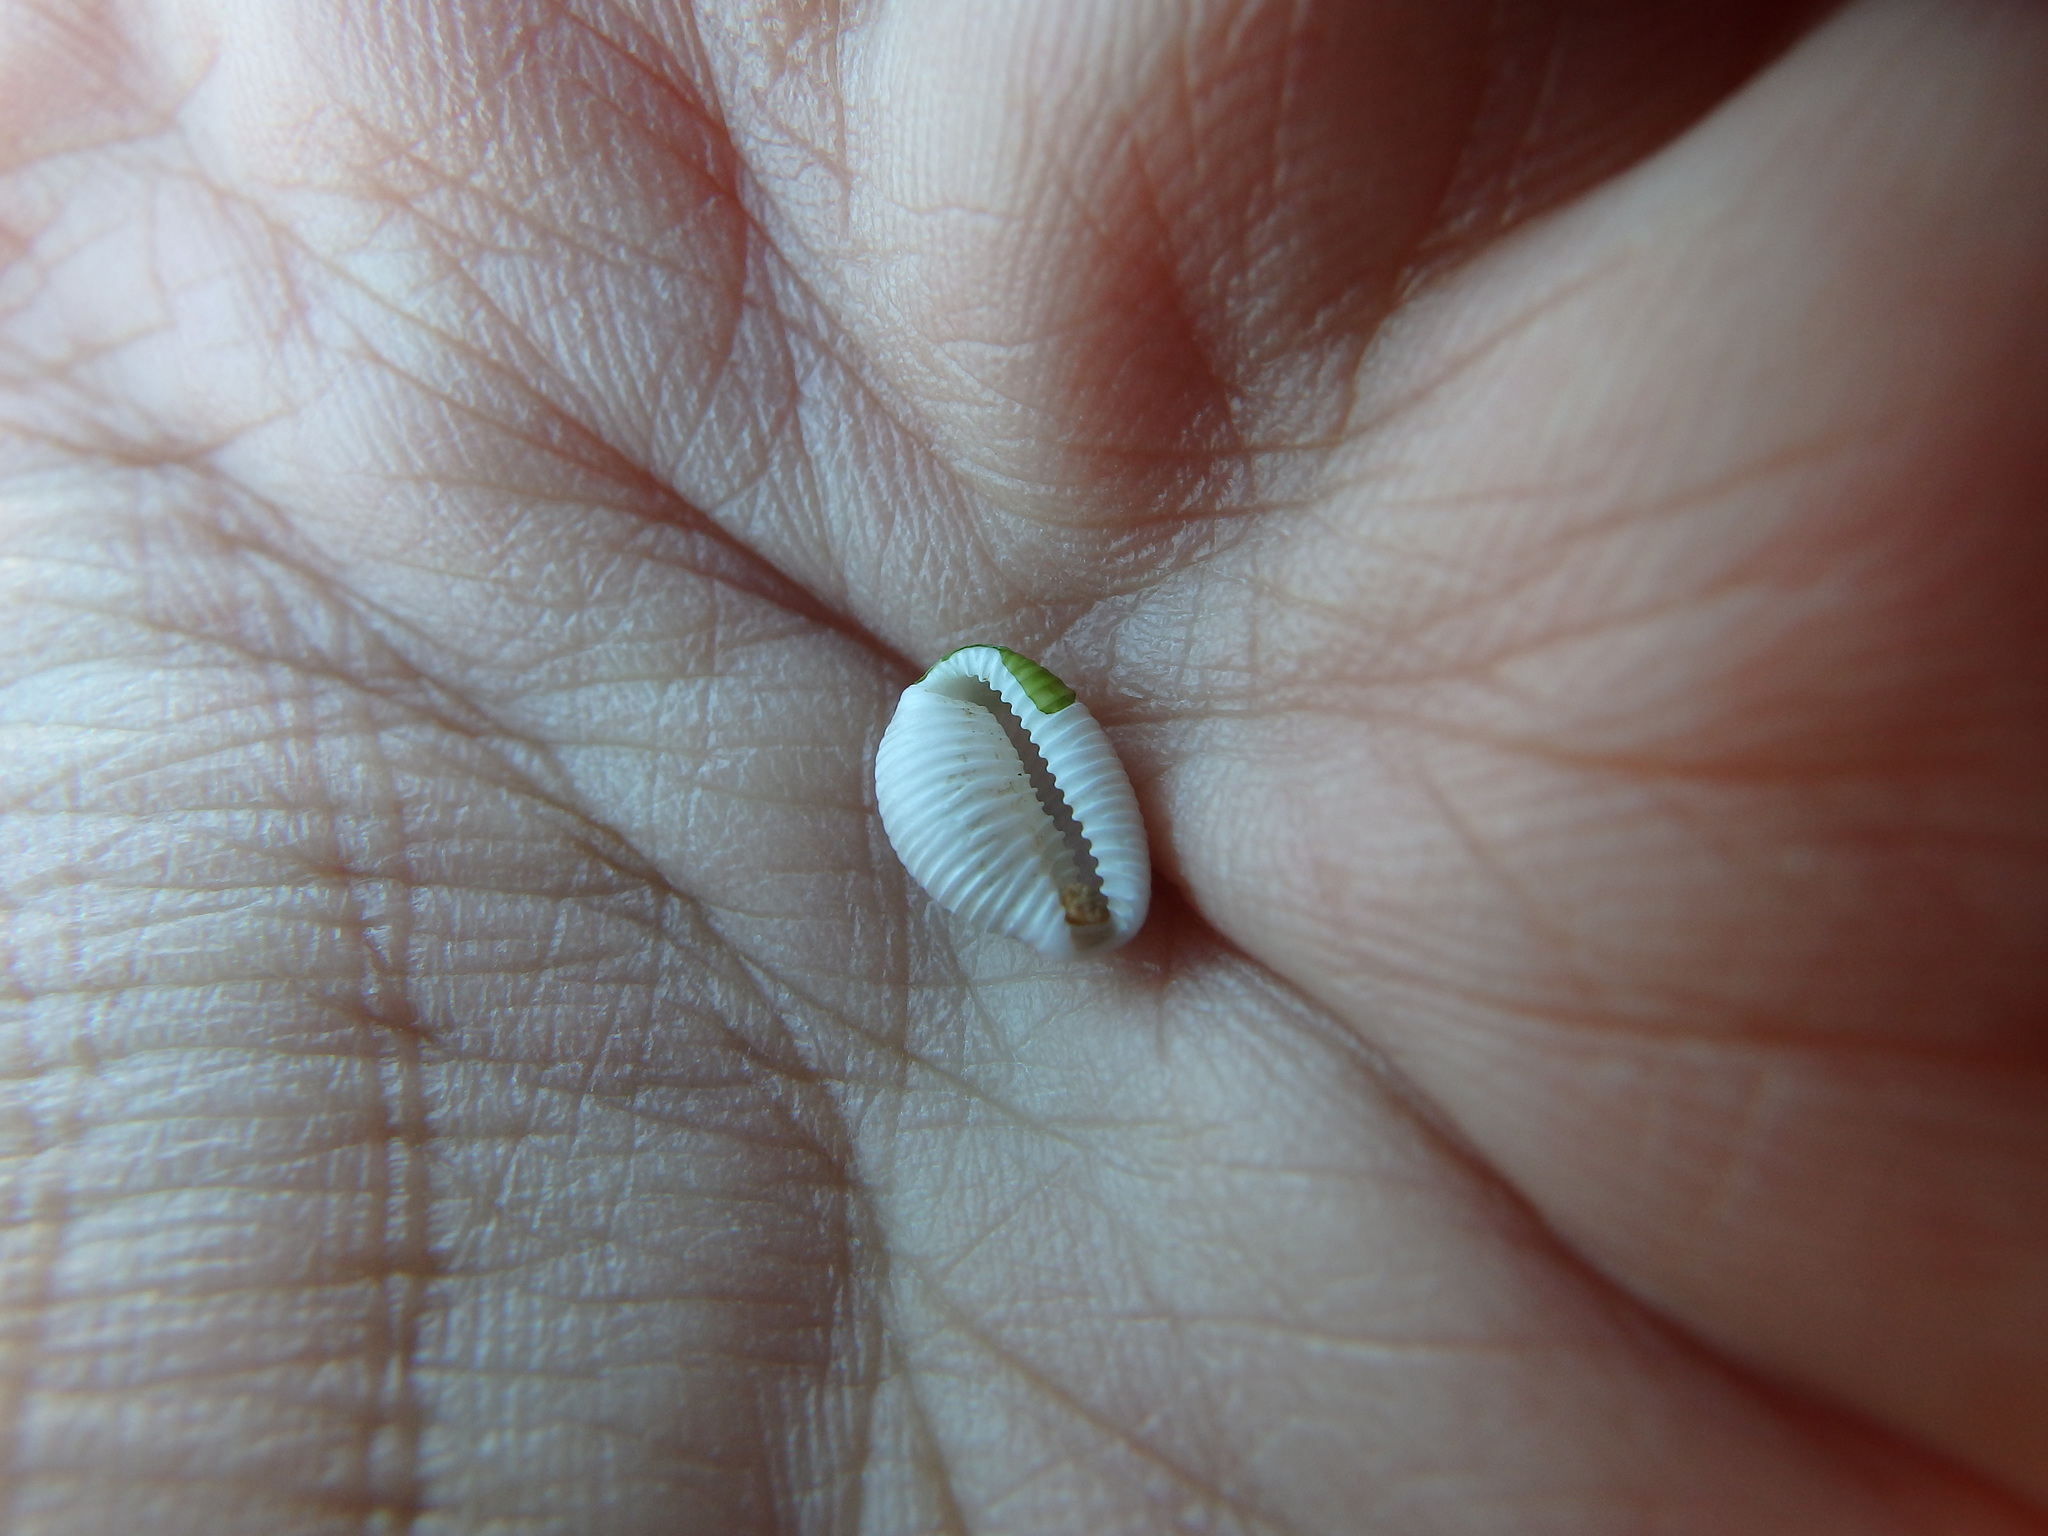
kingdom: Animalia
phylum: Mollusca
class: Gastropoda
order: Littorinimorpha
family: Triviidae
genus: Trivia
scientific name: Trivia monacha
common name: Spotted cowrie
